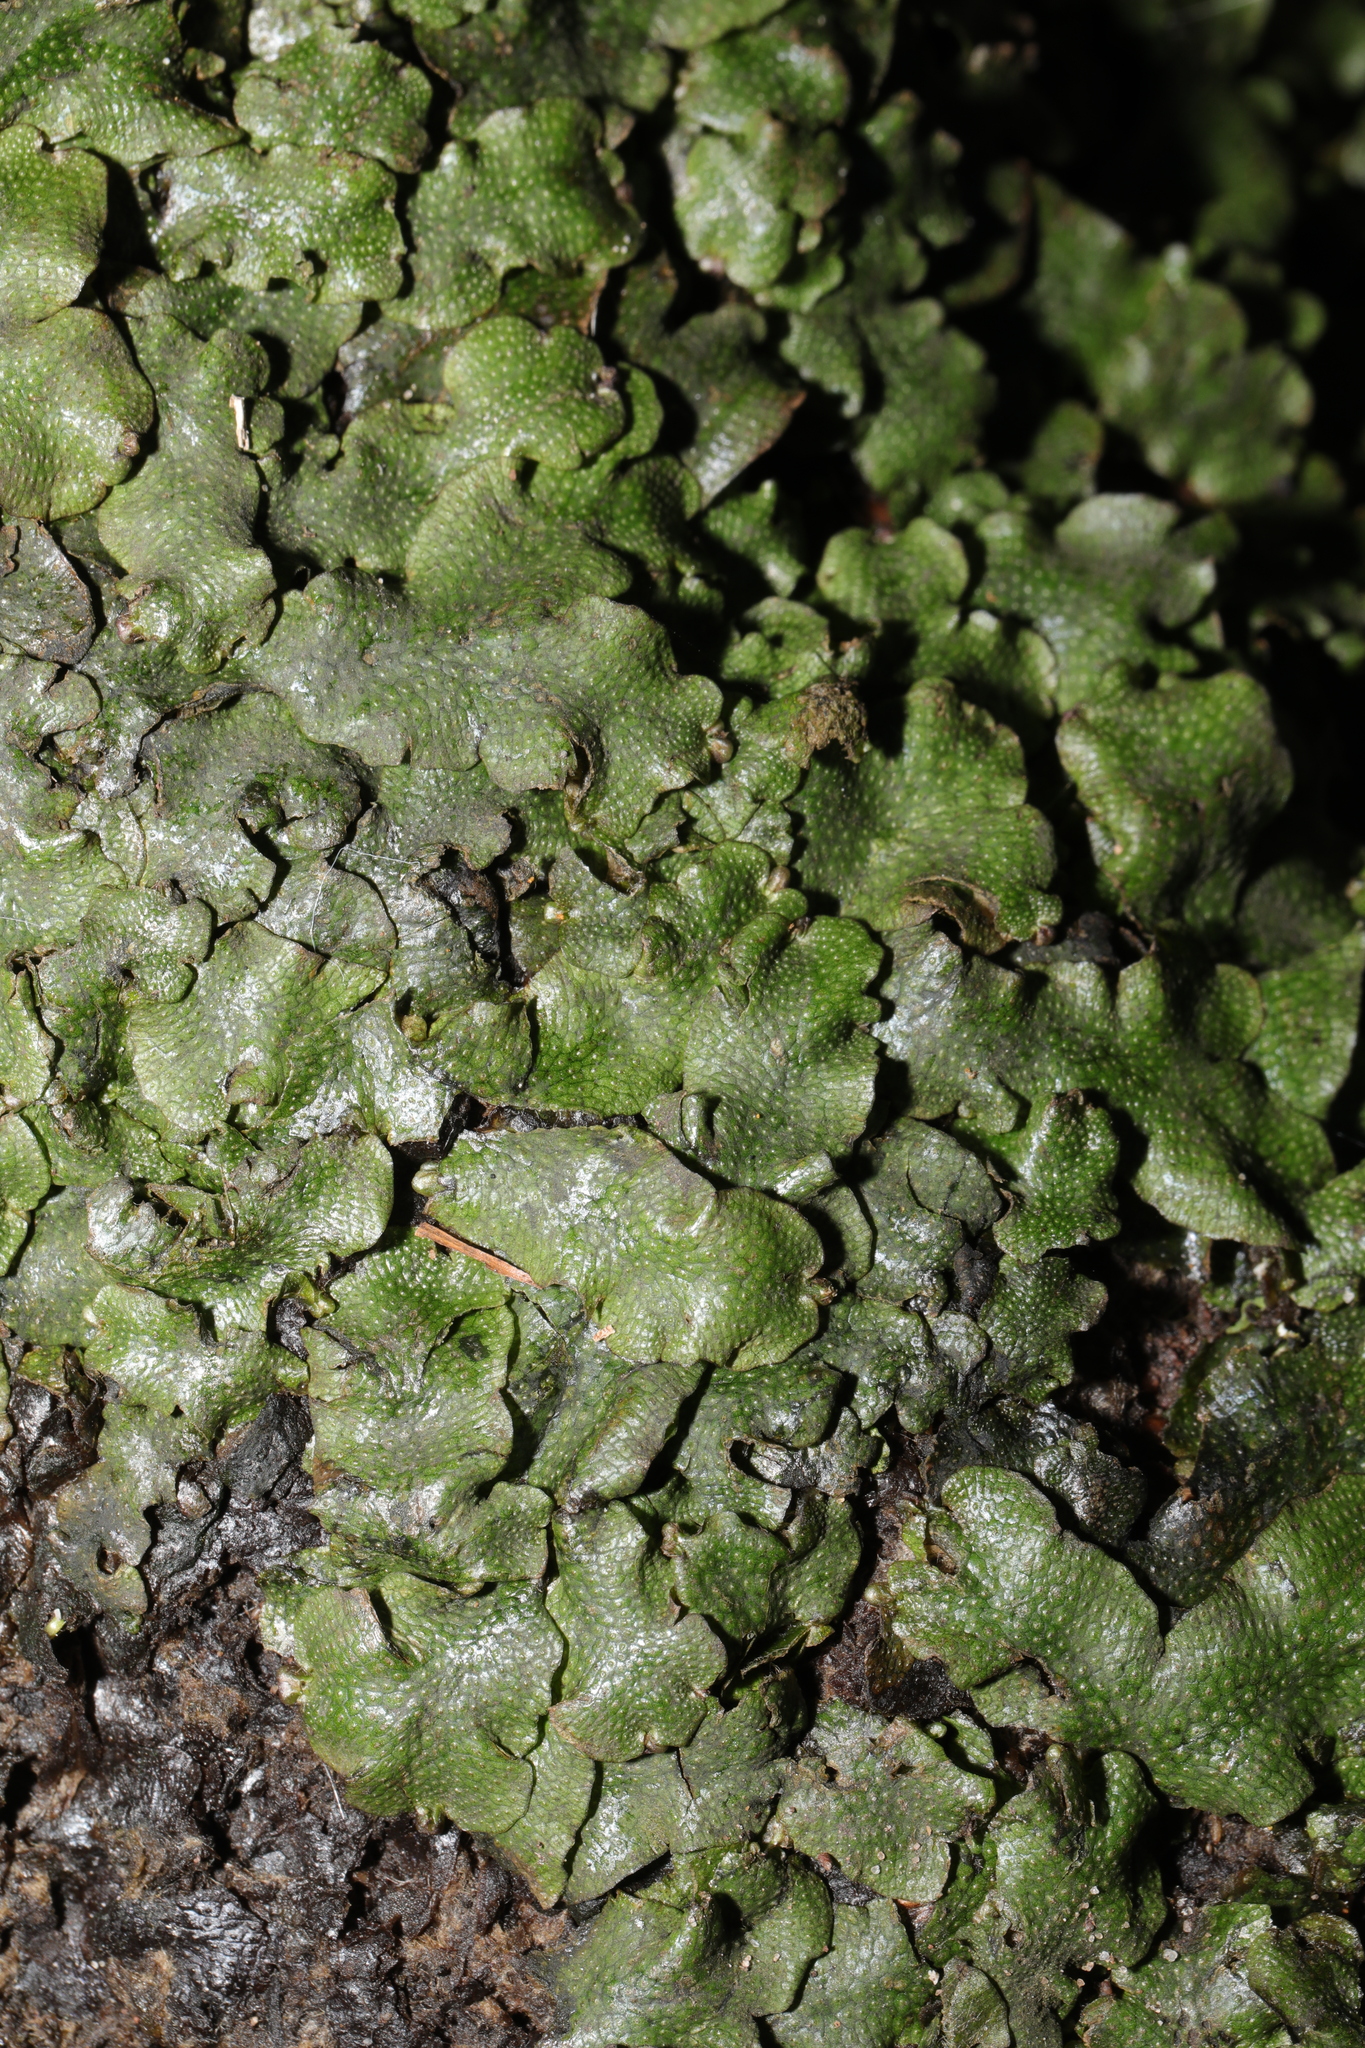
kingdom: Plantae
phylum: Marchantiophyta
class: Marchantiopsida
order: Marchantiales
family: Conocephalaceae
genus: Conocephalum
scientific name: Conocephalum conicum
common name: Great scented liverwort
